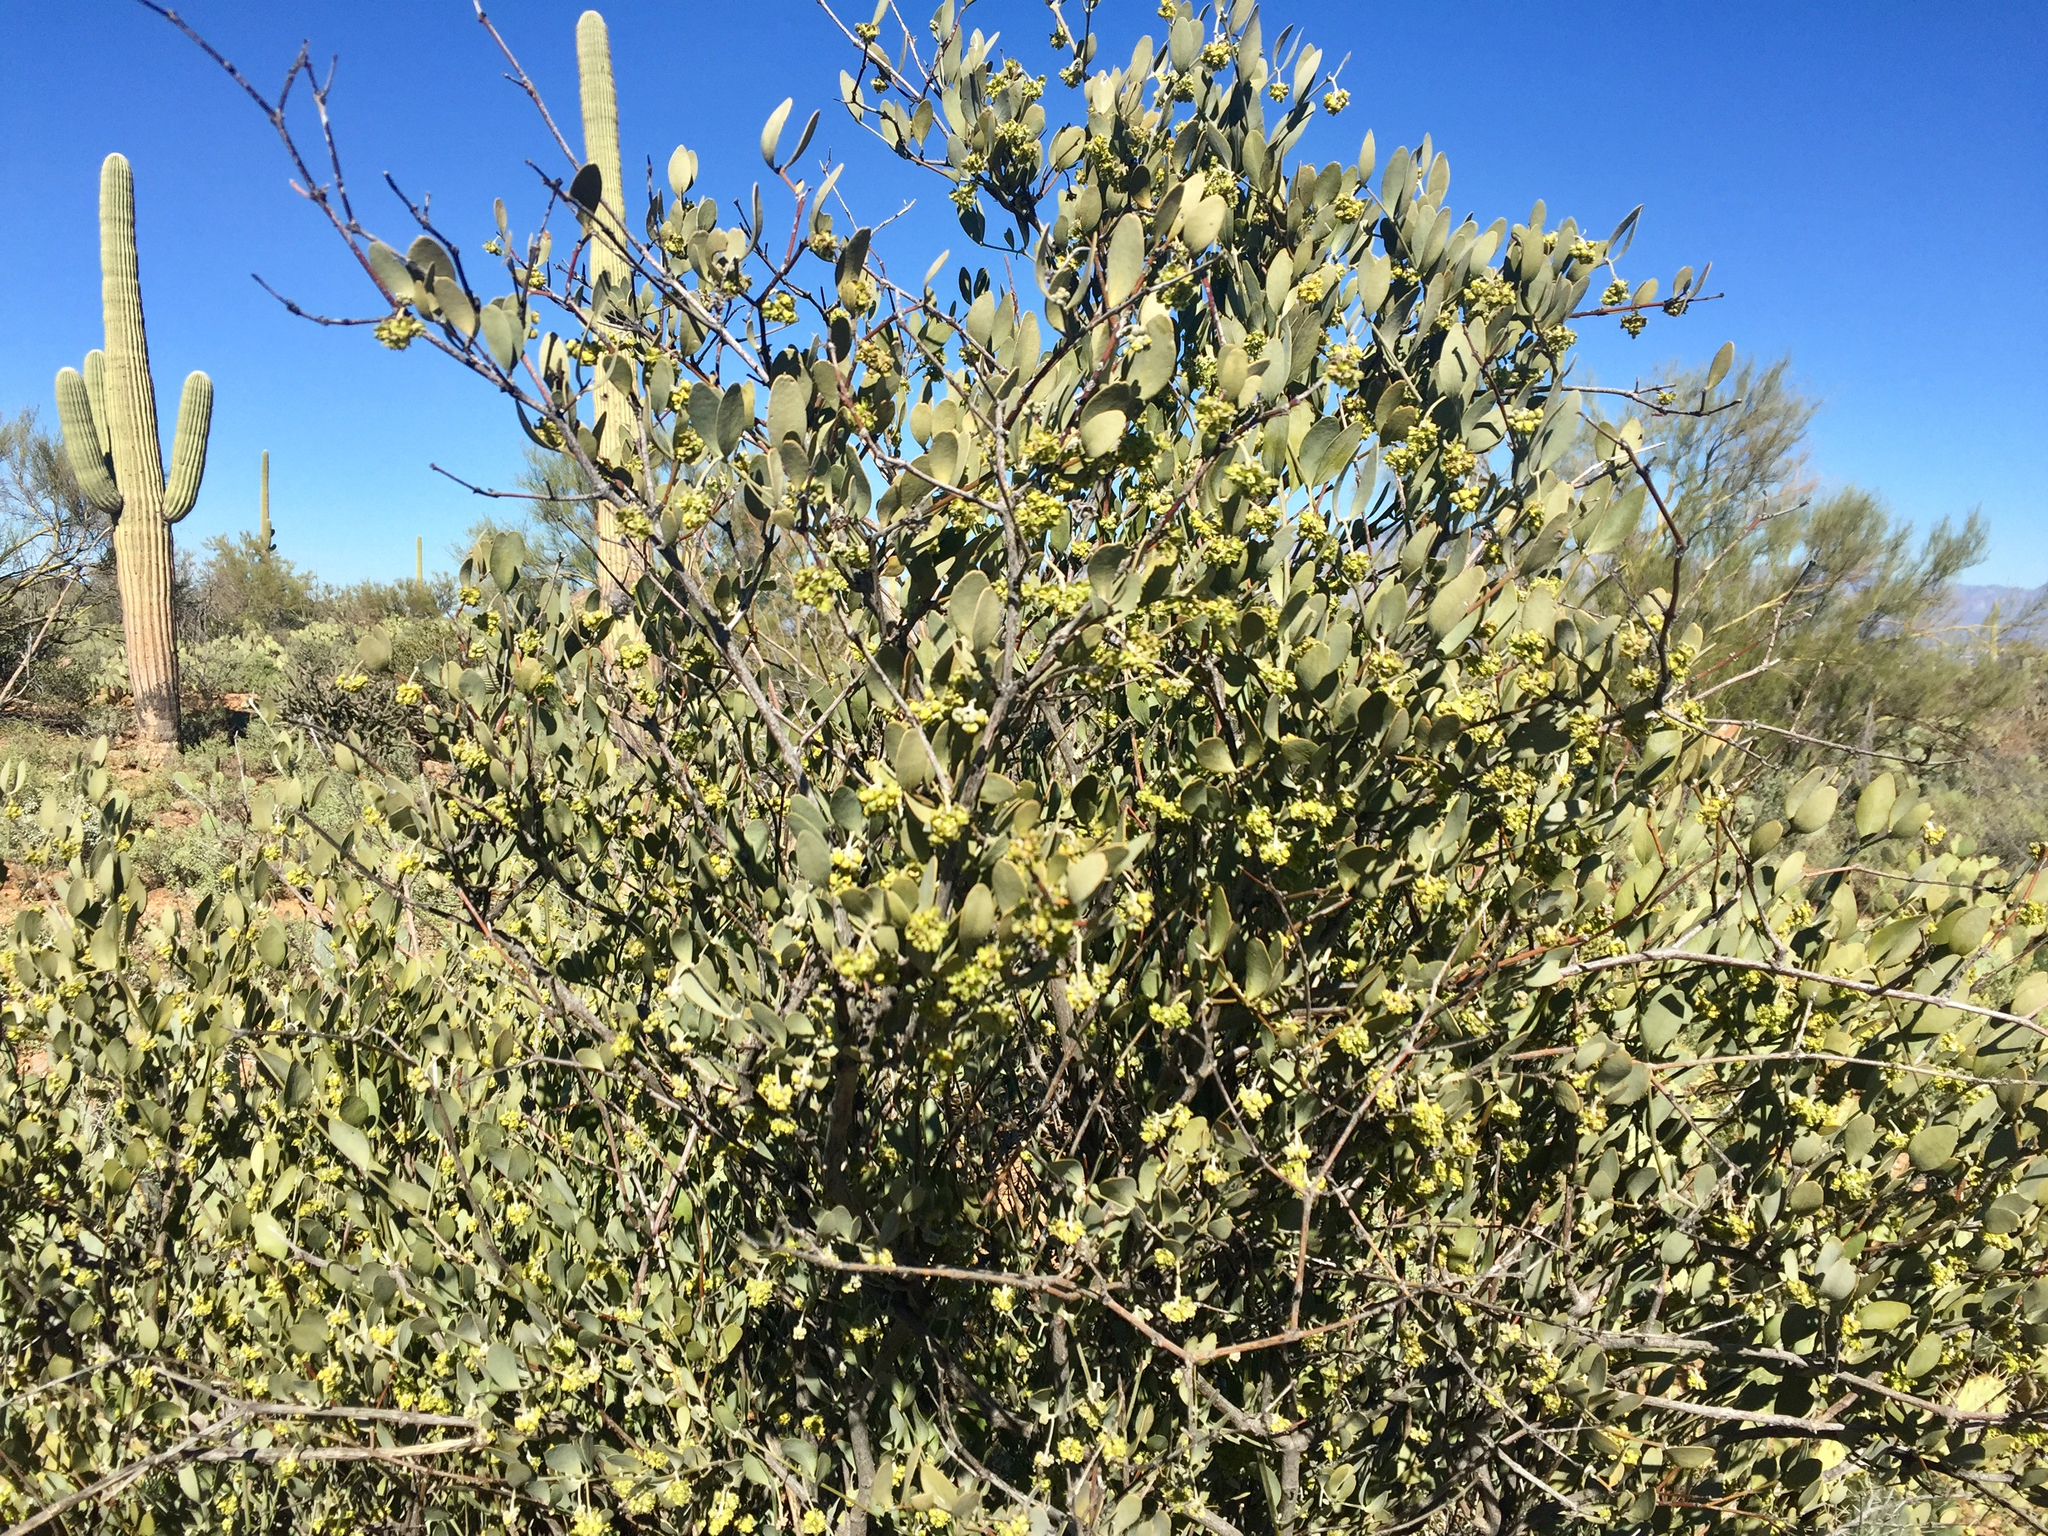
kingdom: Plantae
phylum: Tracheophyta
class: Magnoliopsida
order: Caryophyllales
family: Simmondsiaceae
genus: Simmondsia
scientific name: Simmondsia chinensis
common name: Jojoba
